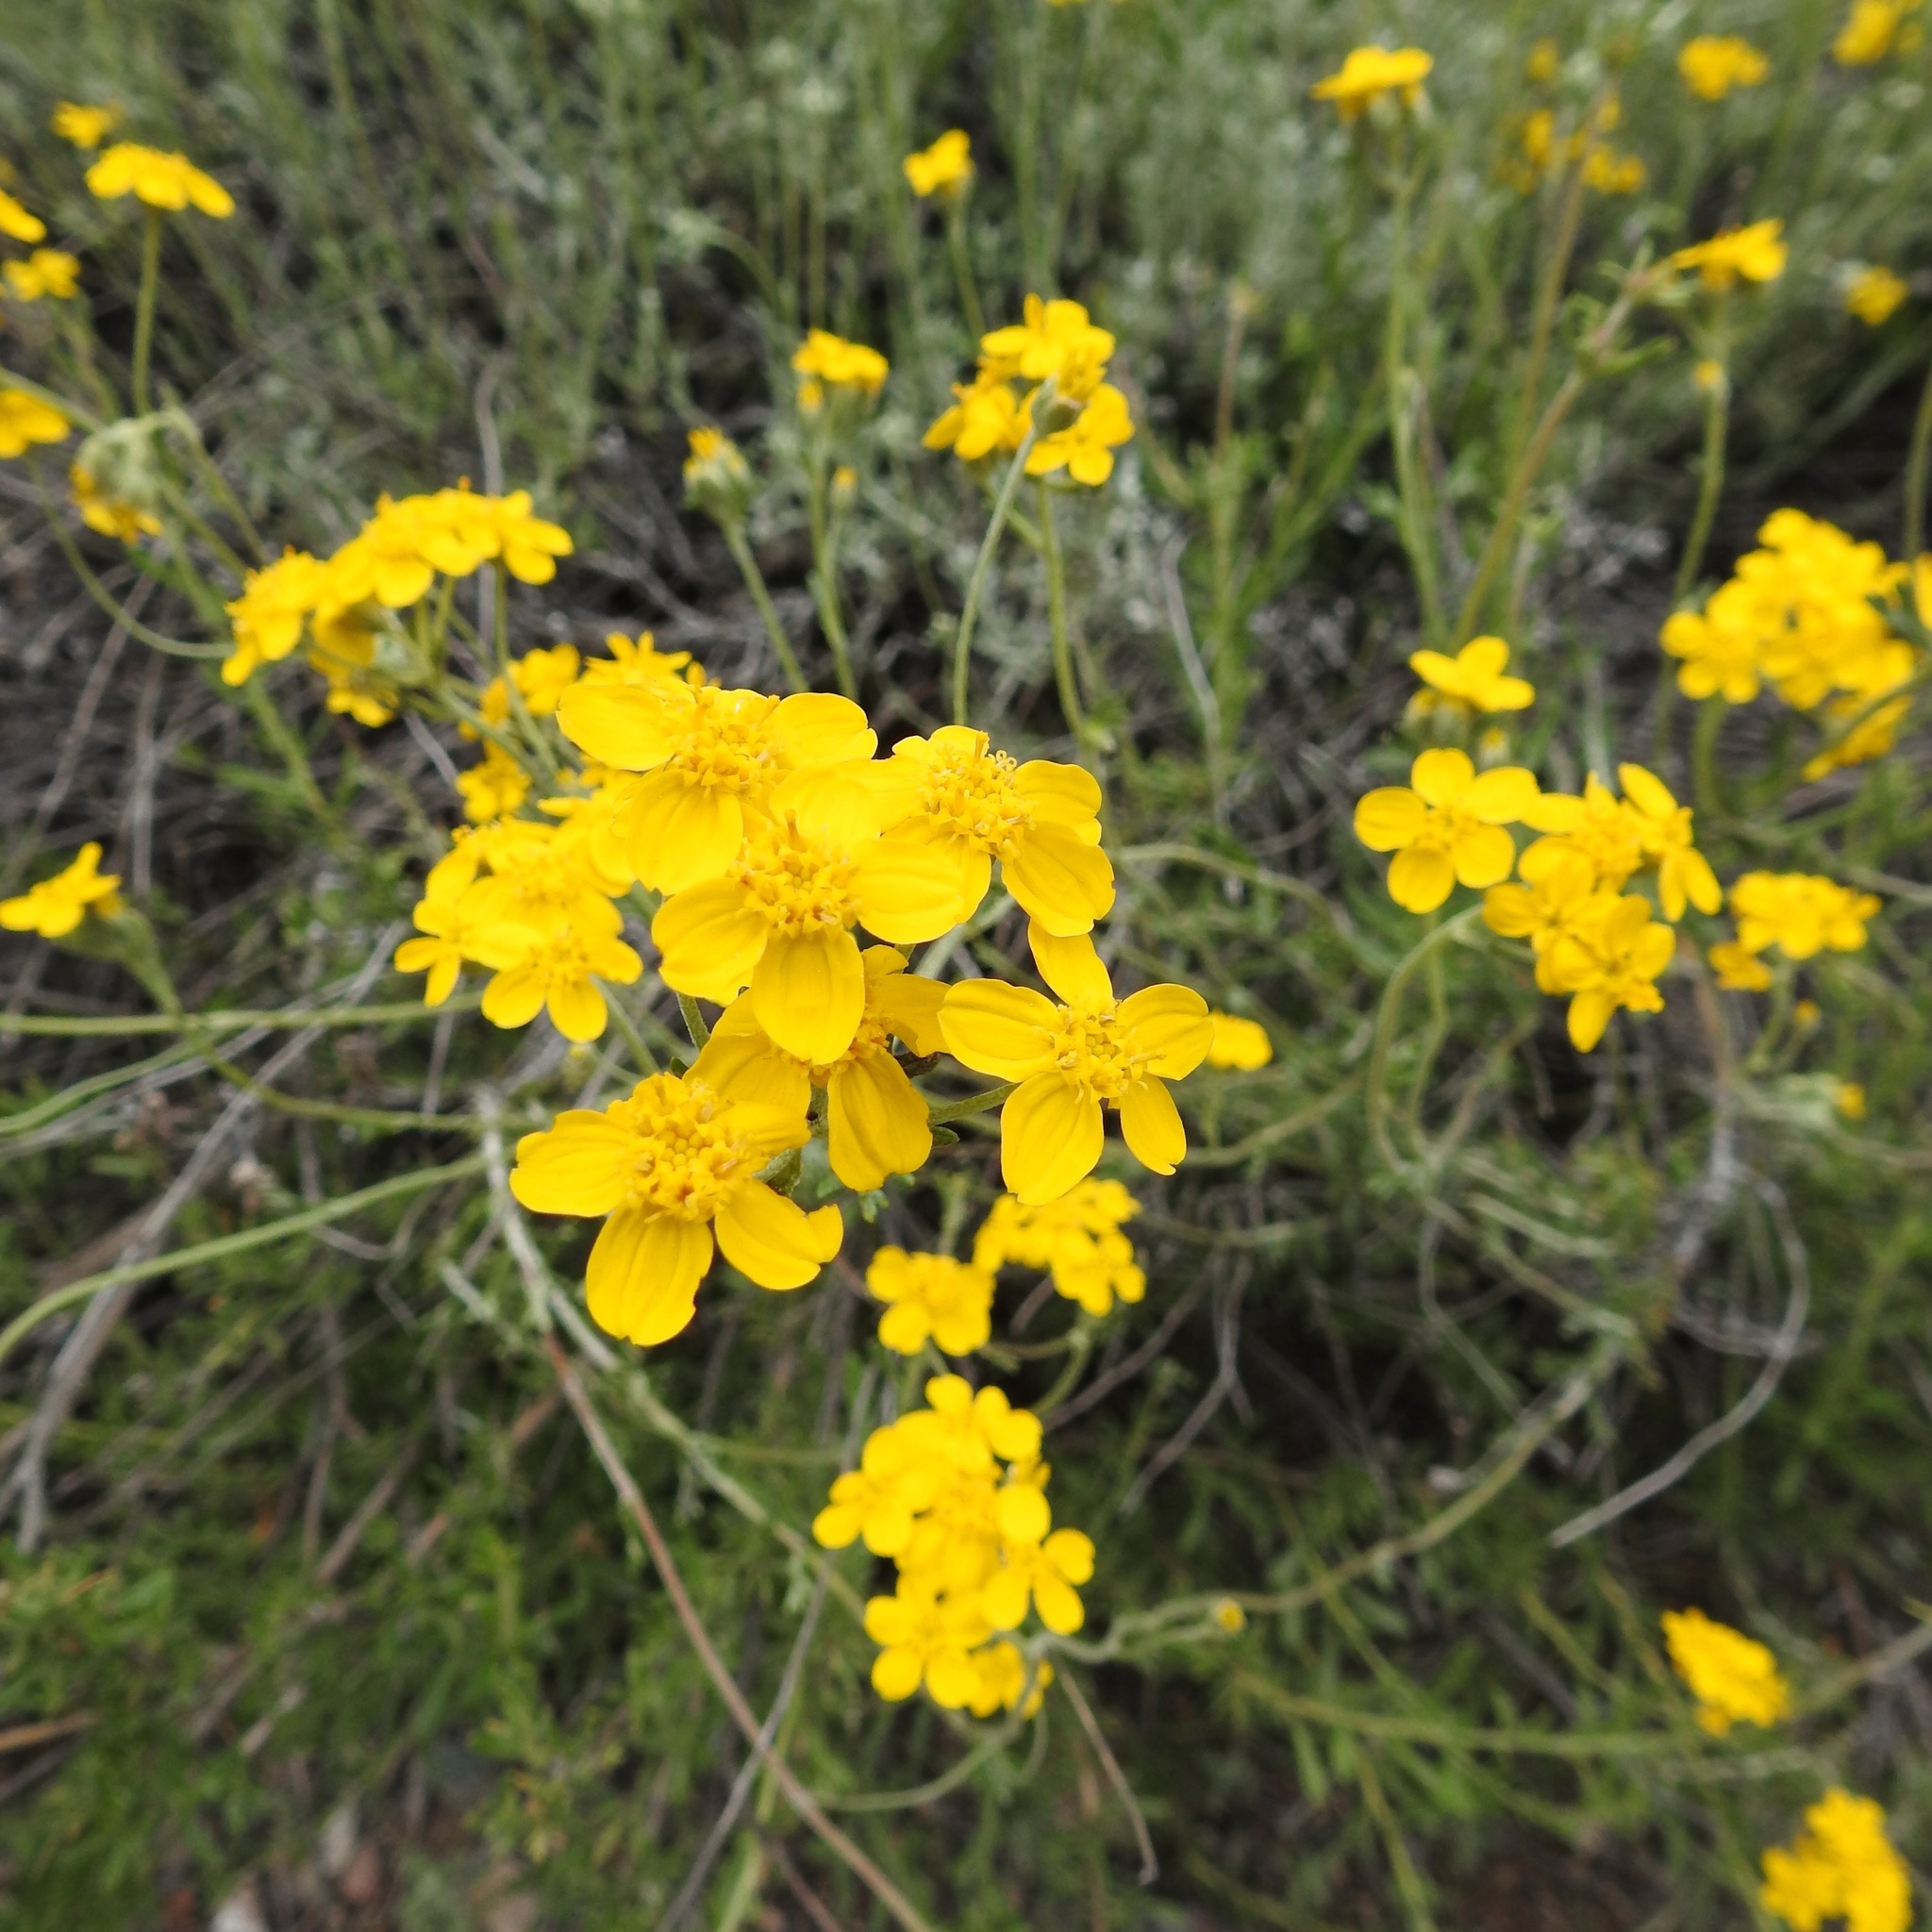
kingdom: Plantae
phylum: Tracheophyta
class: Magnoliopsida
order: Asterales
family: Asteraceae
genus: Eriophyllum
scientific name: Eriophyllum confertiflorum
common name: Golden-yarrow
